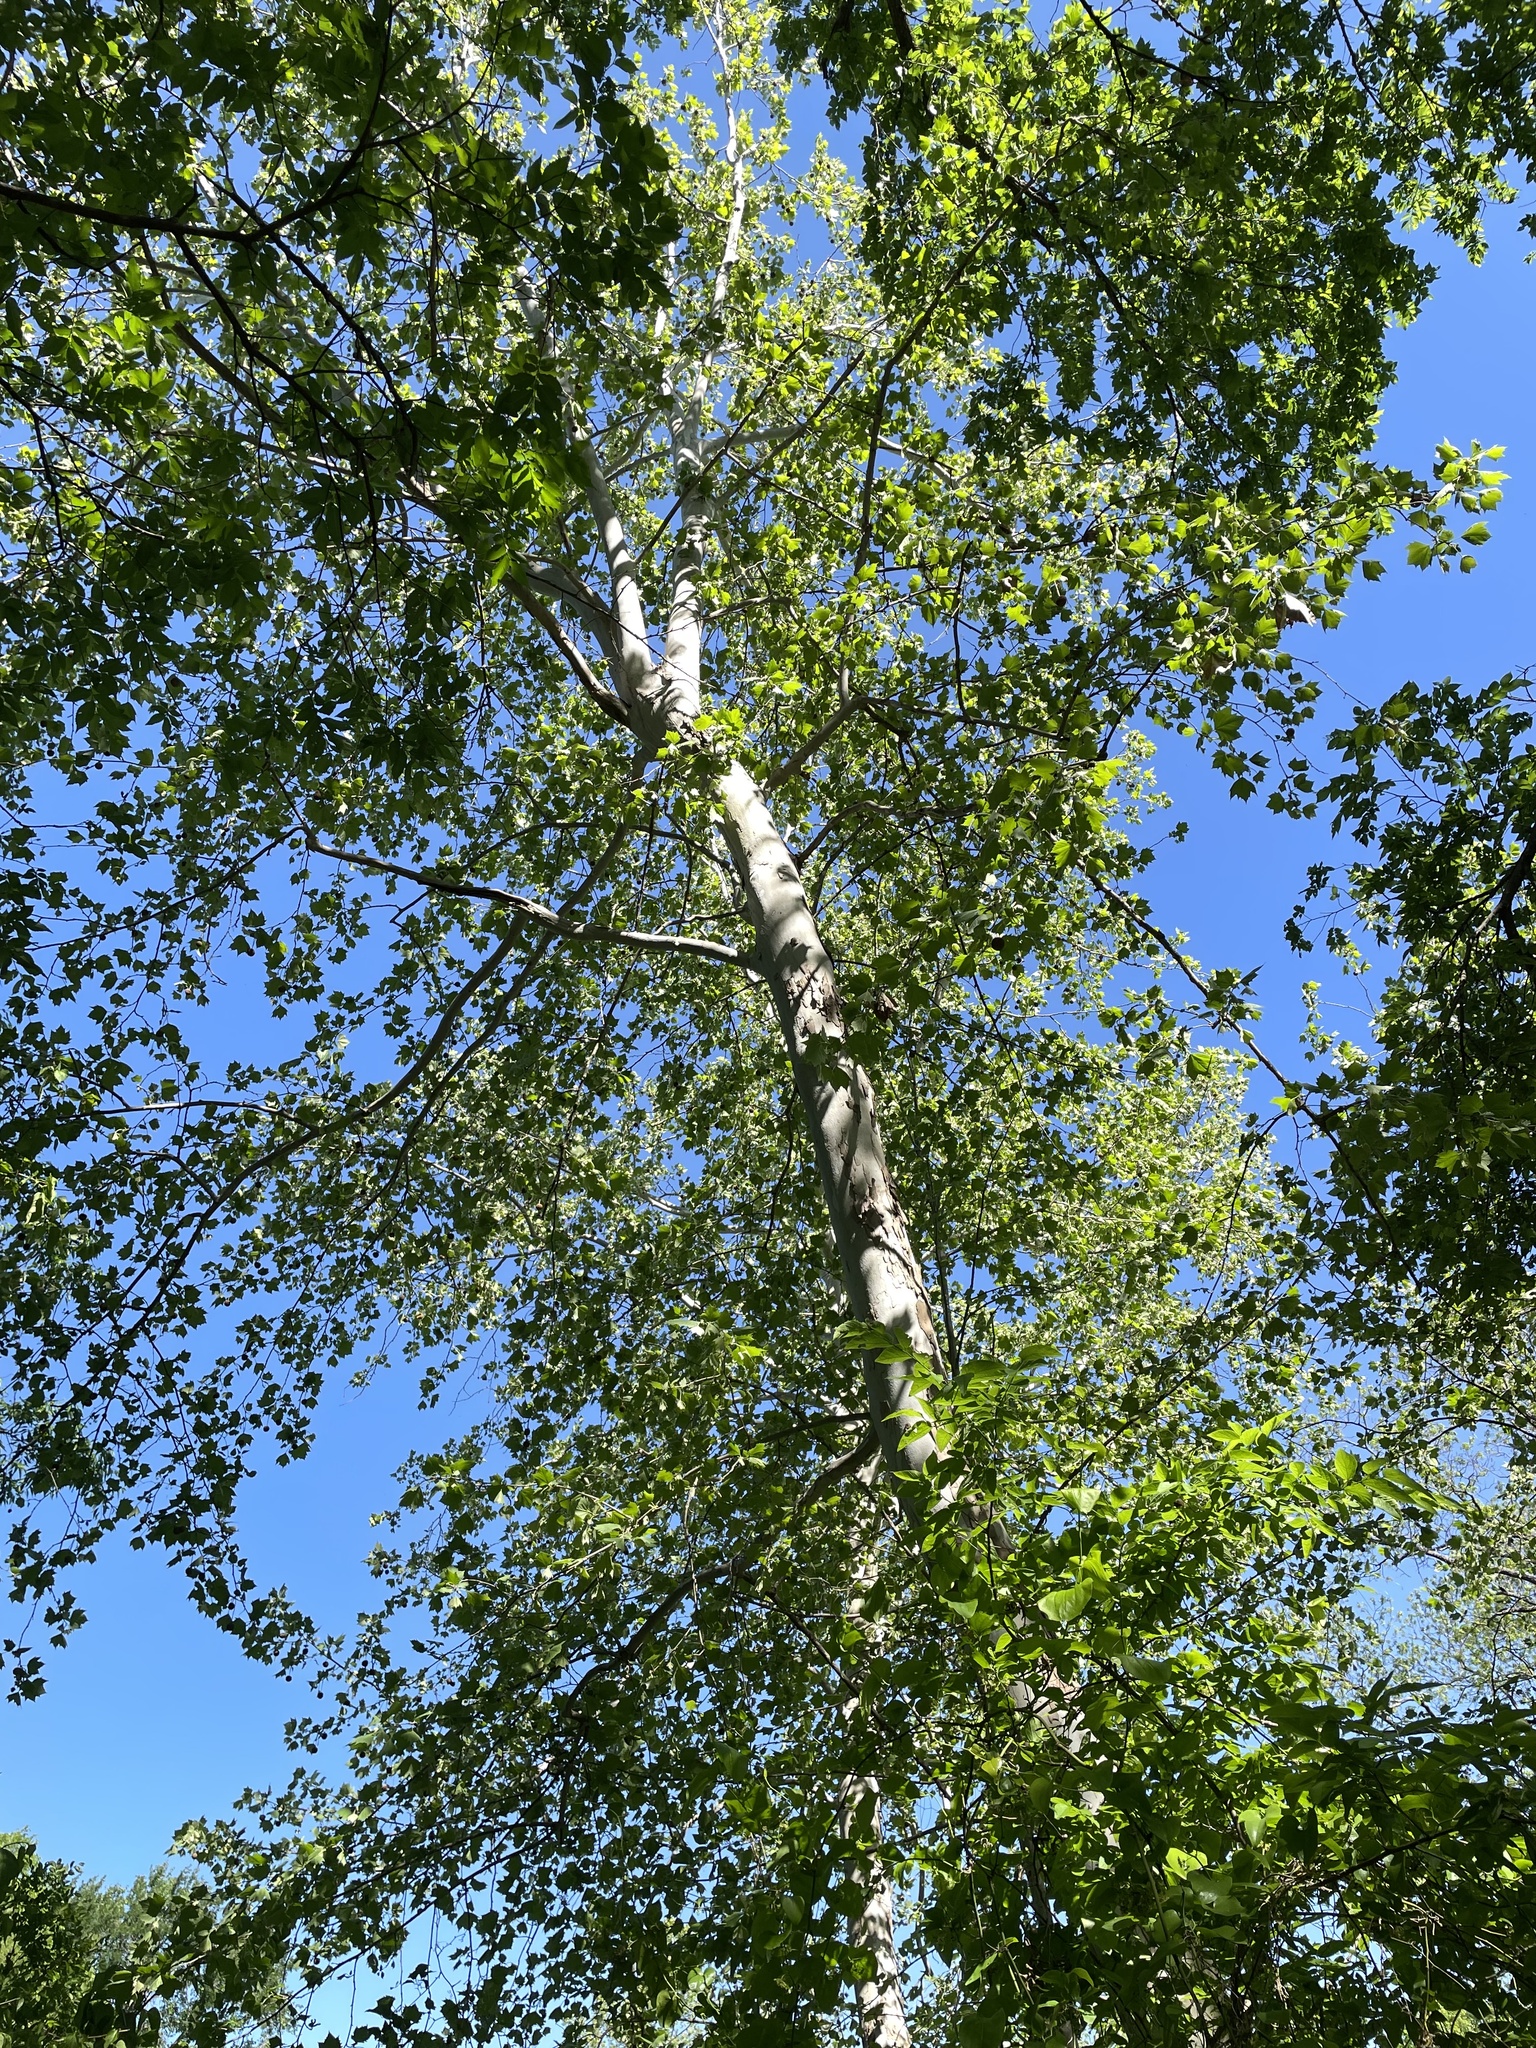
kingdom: Plantae
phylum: Tracheophyta
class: Magnoliopsida
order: Proteales
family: Platanaceae
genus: Platanus
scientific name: Platanus occidentalis
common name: American sycamore
